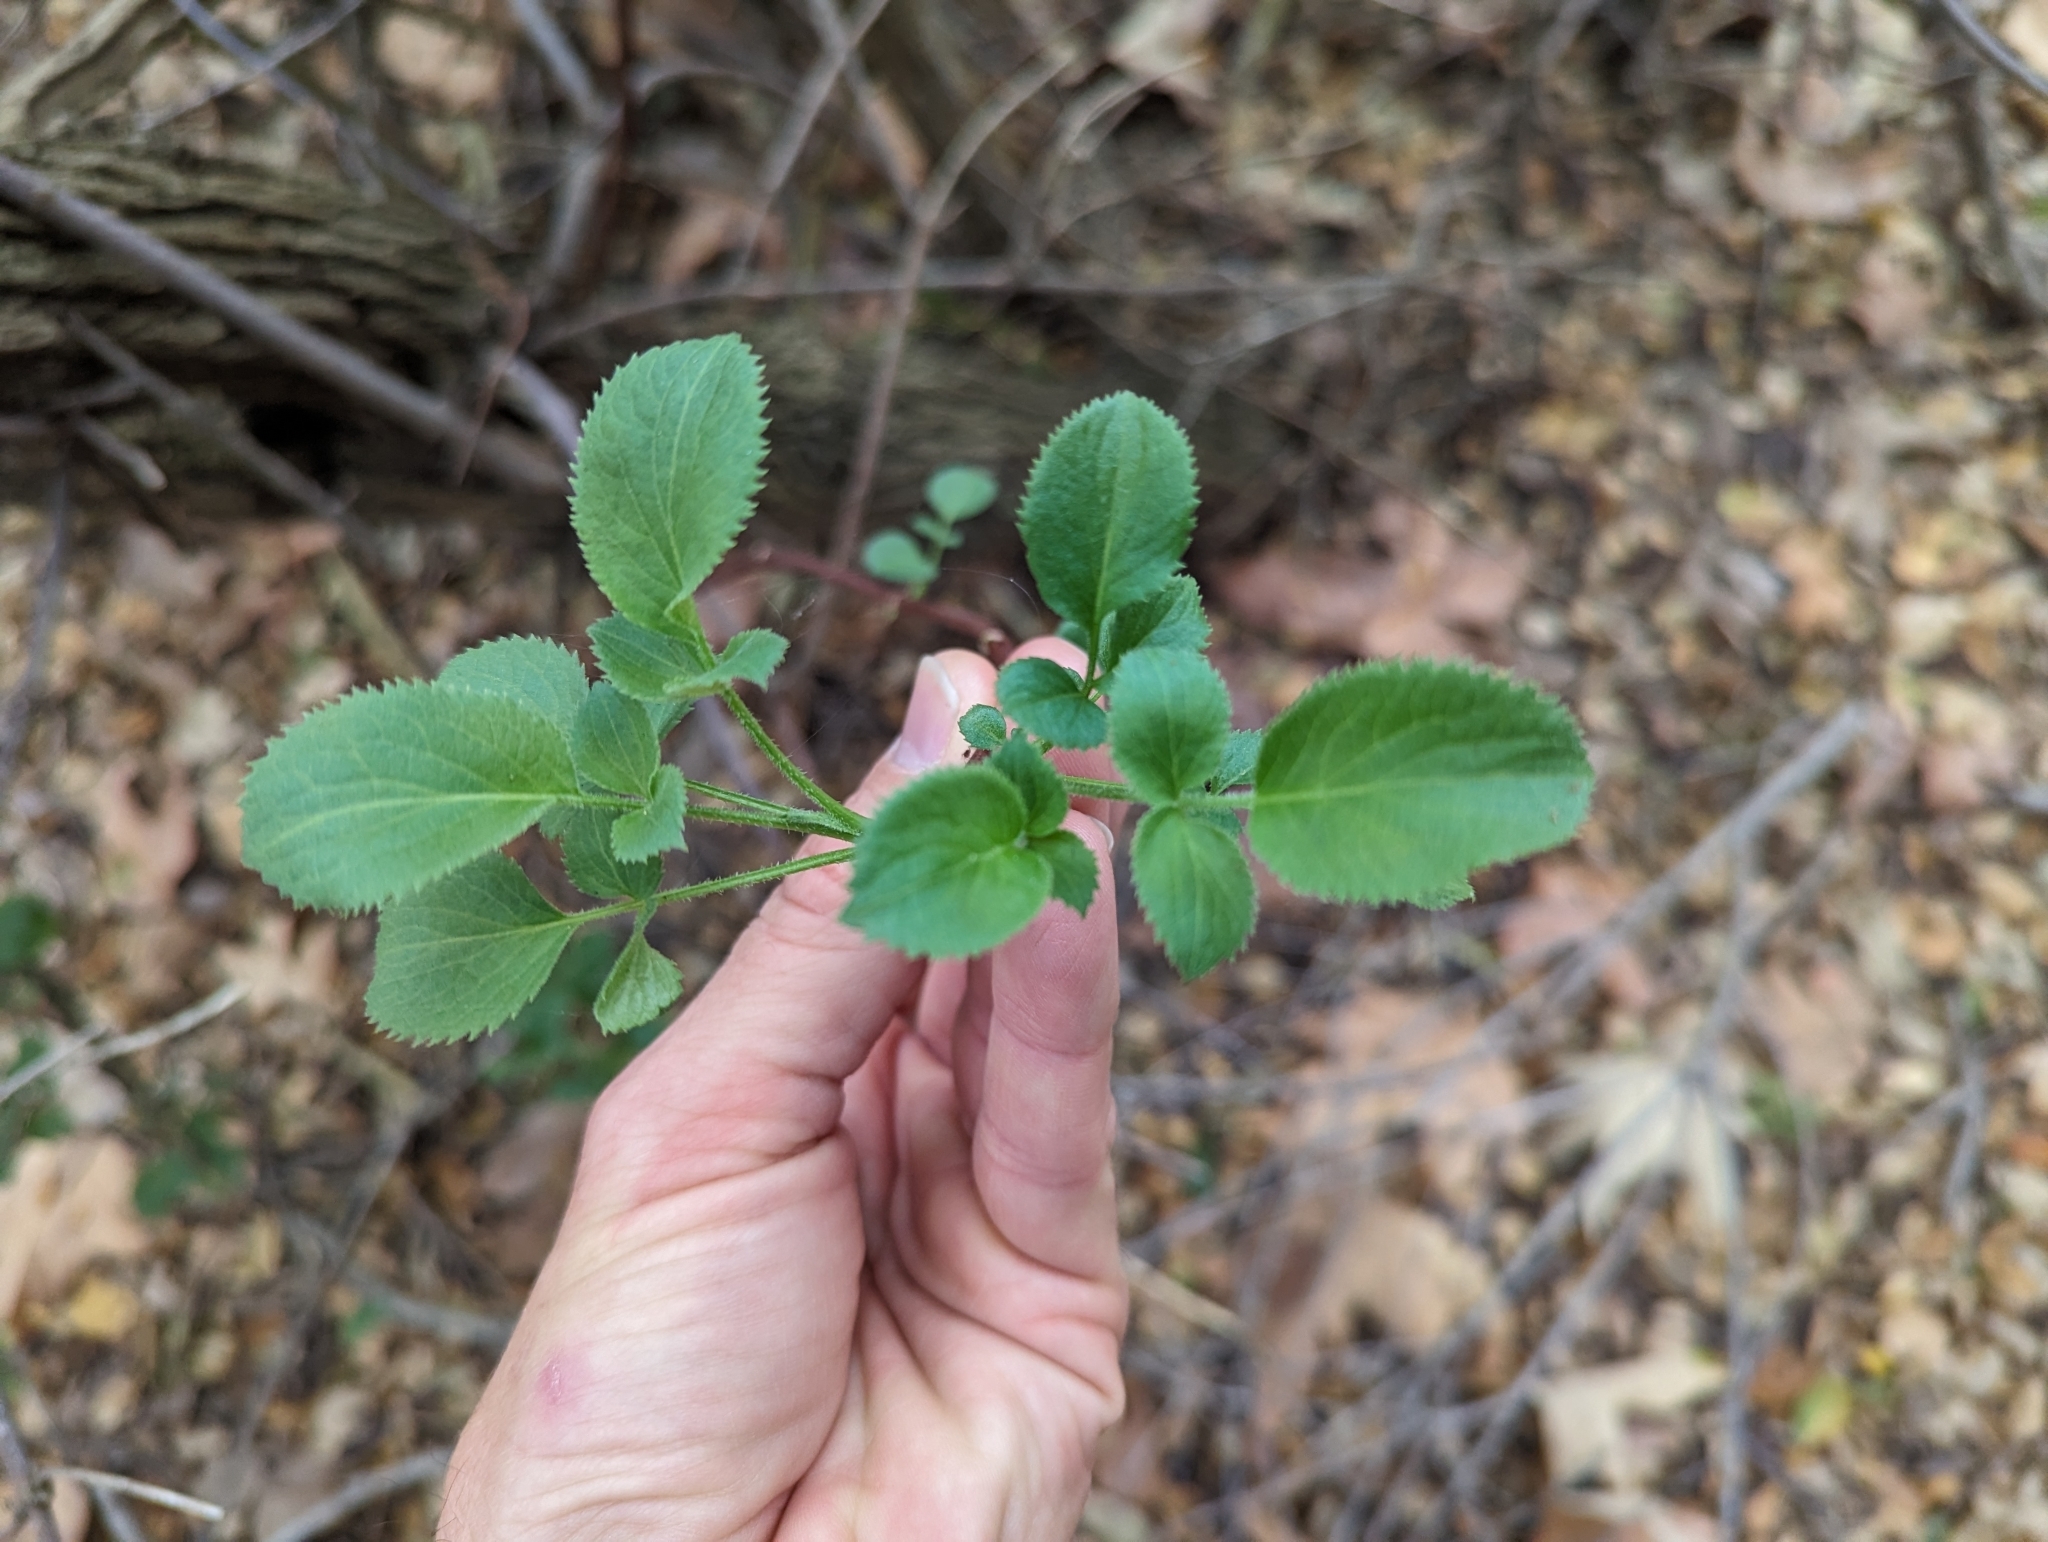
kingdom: Plantae
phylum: Tracheophyta
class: Magnoliopsida
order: Dipsacales
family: Viburnaceae
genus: Sambucus
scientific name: Sambucus cerulea
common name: Blue elder
